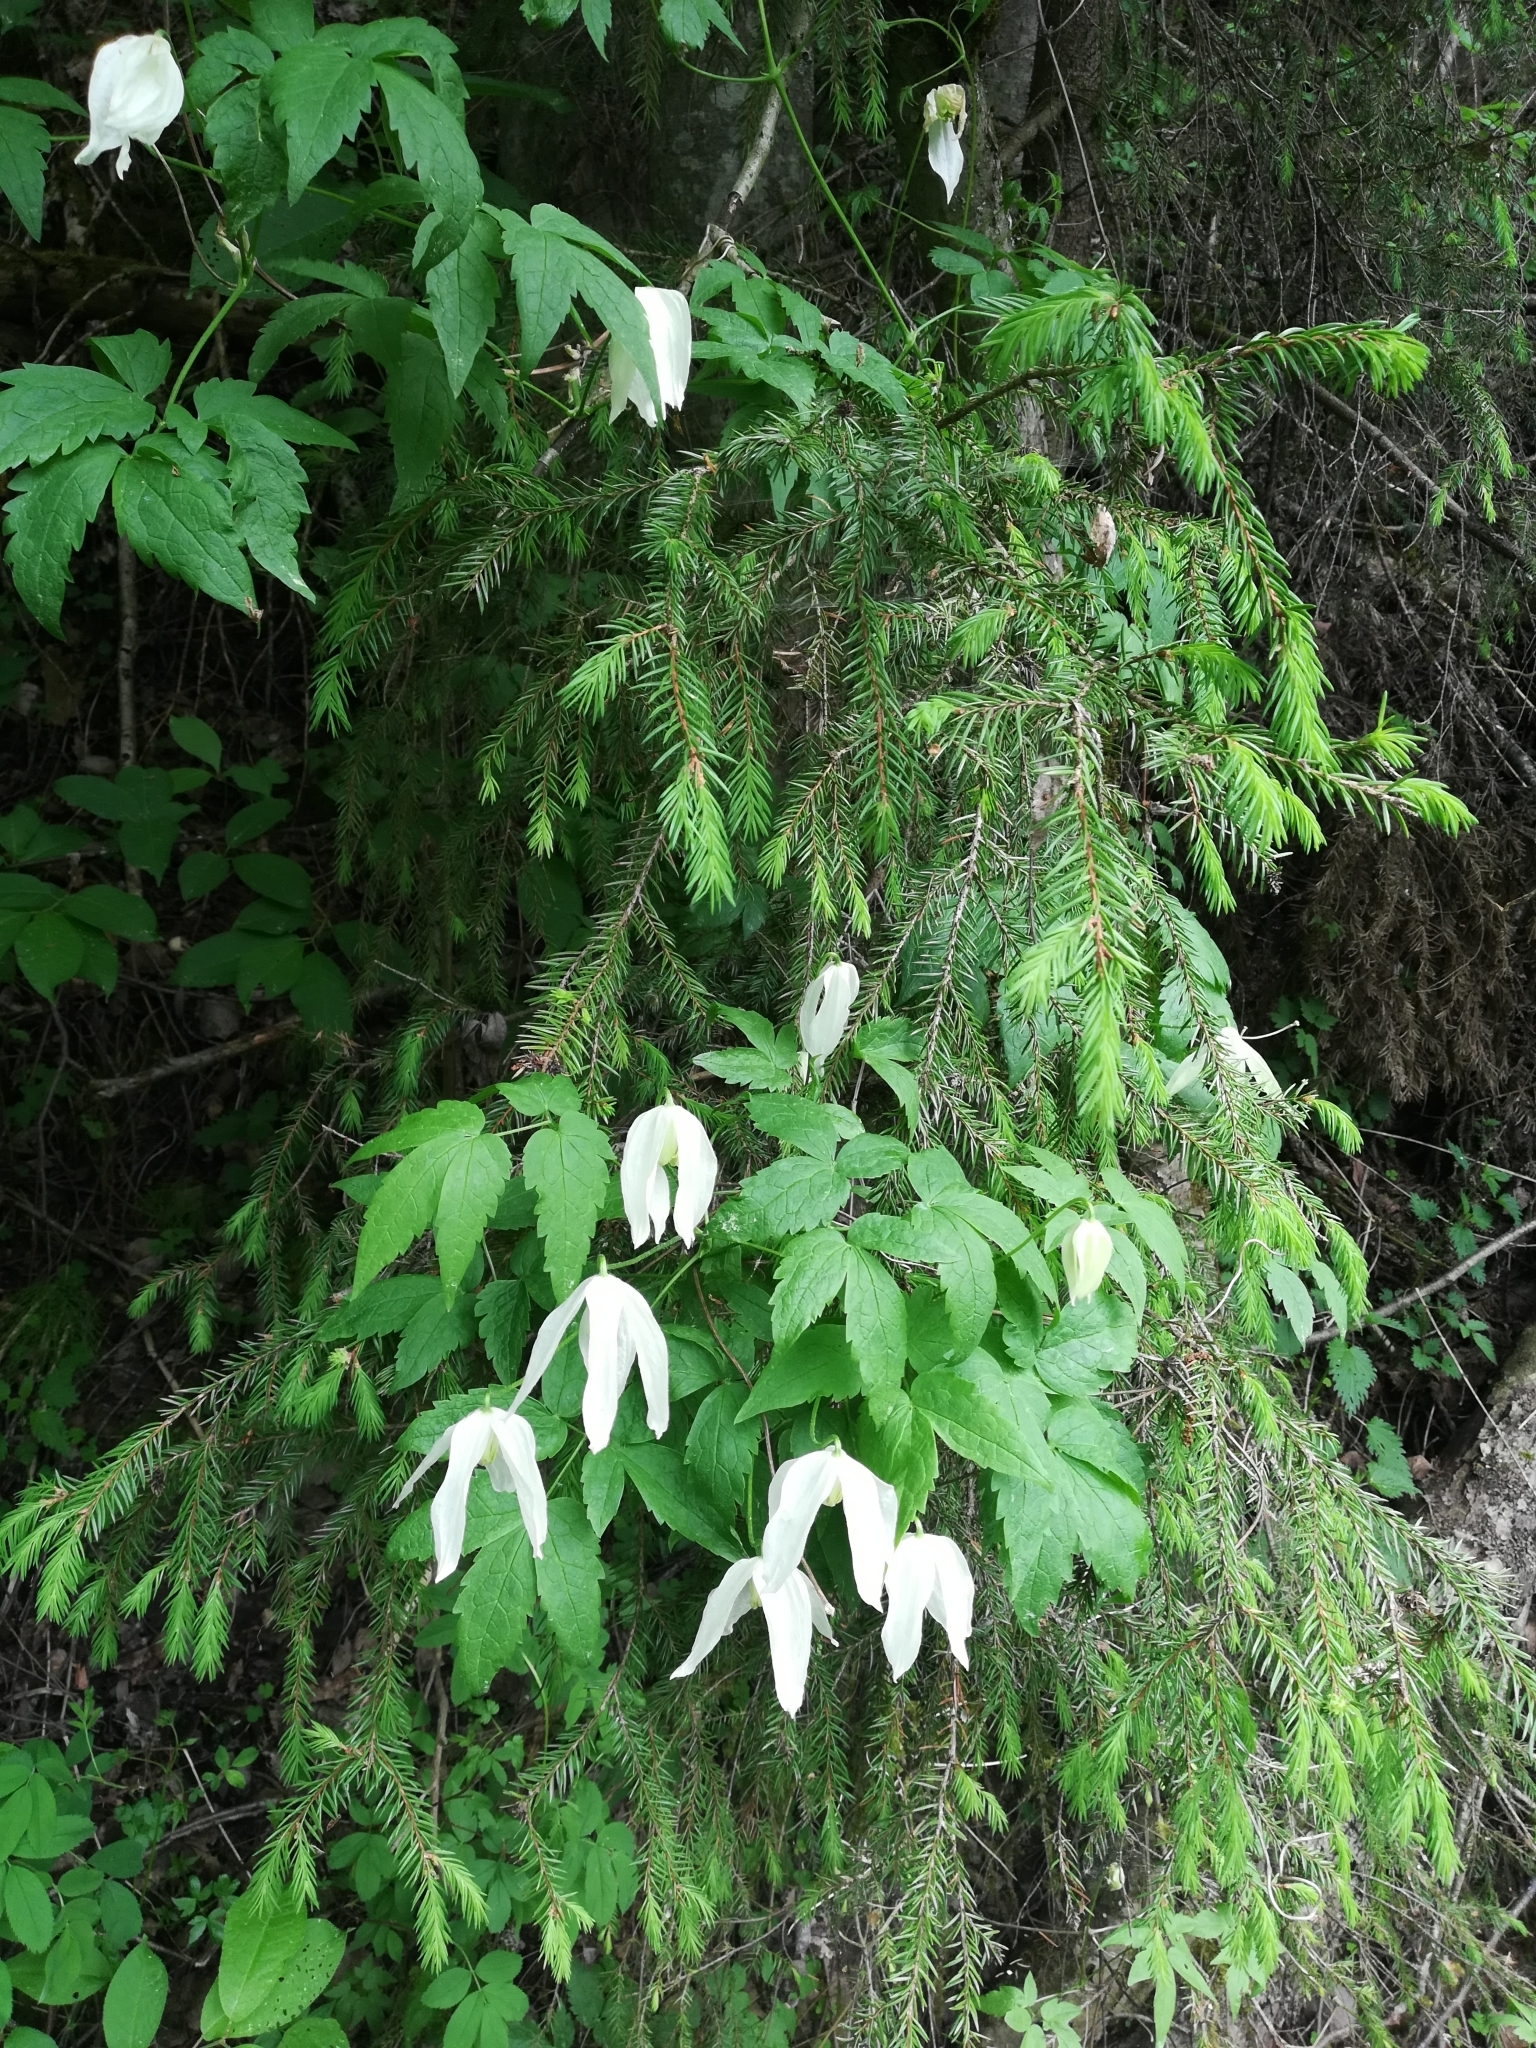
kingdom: Plantae
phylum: Tracheophyta
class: Magnoliopsida
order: Ranunculales
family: Ranunculaceae
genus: Clematis
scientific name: Clematis sibirica
